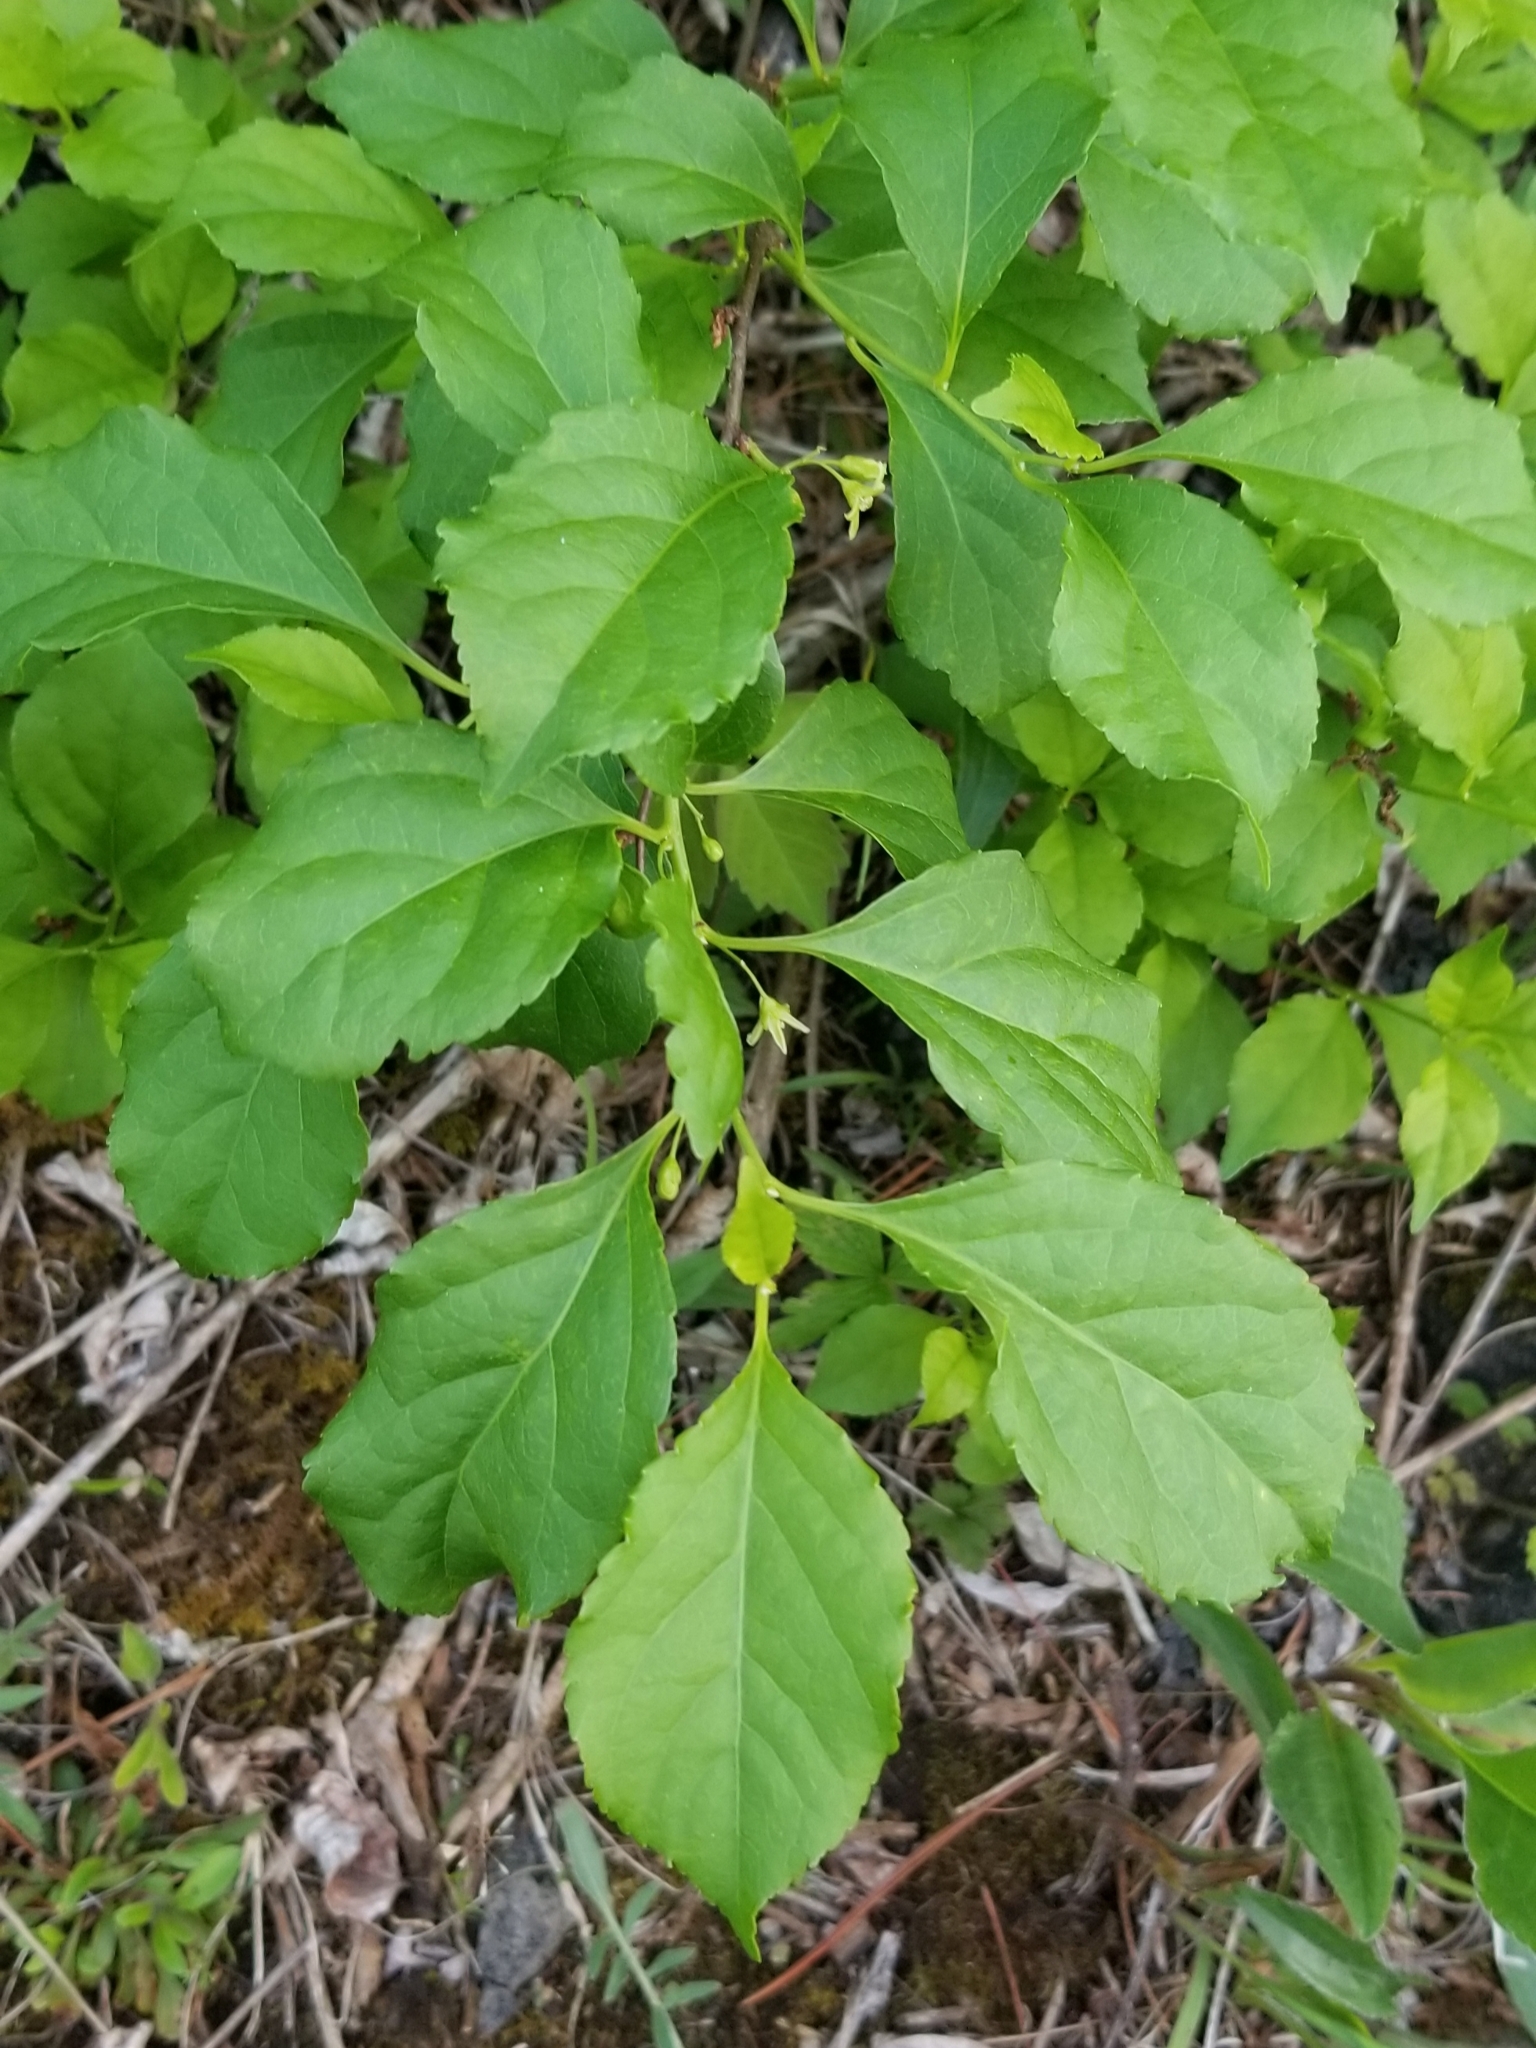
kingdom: Plantae
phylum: Tracheophyta
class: Magnoliopsida
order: Celastrales
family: Celastraceae
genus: Celastrus
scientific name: Celastrus orbiculatus
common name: Oriental bittersweet
